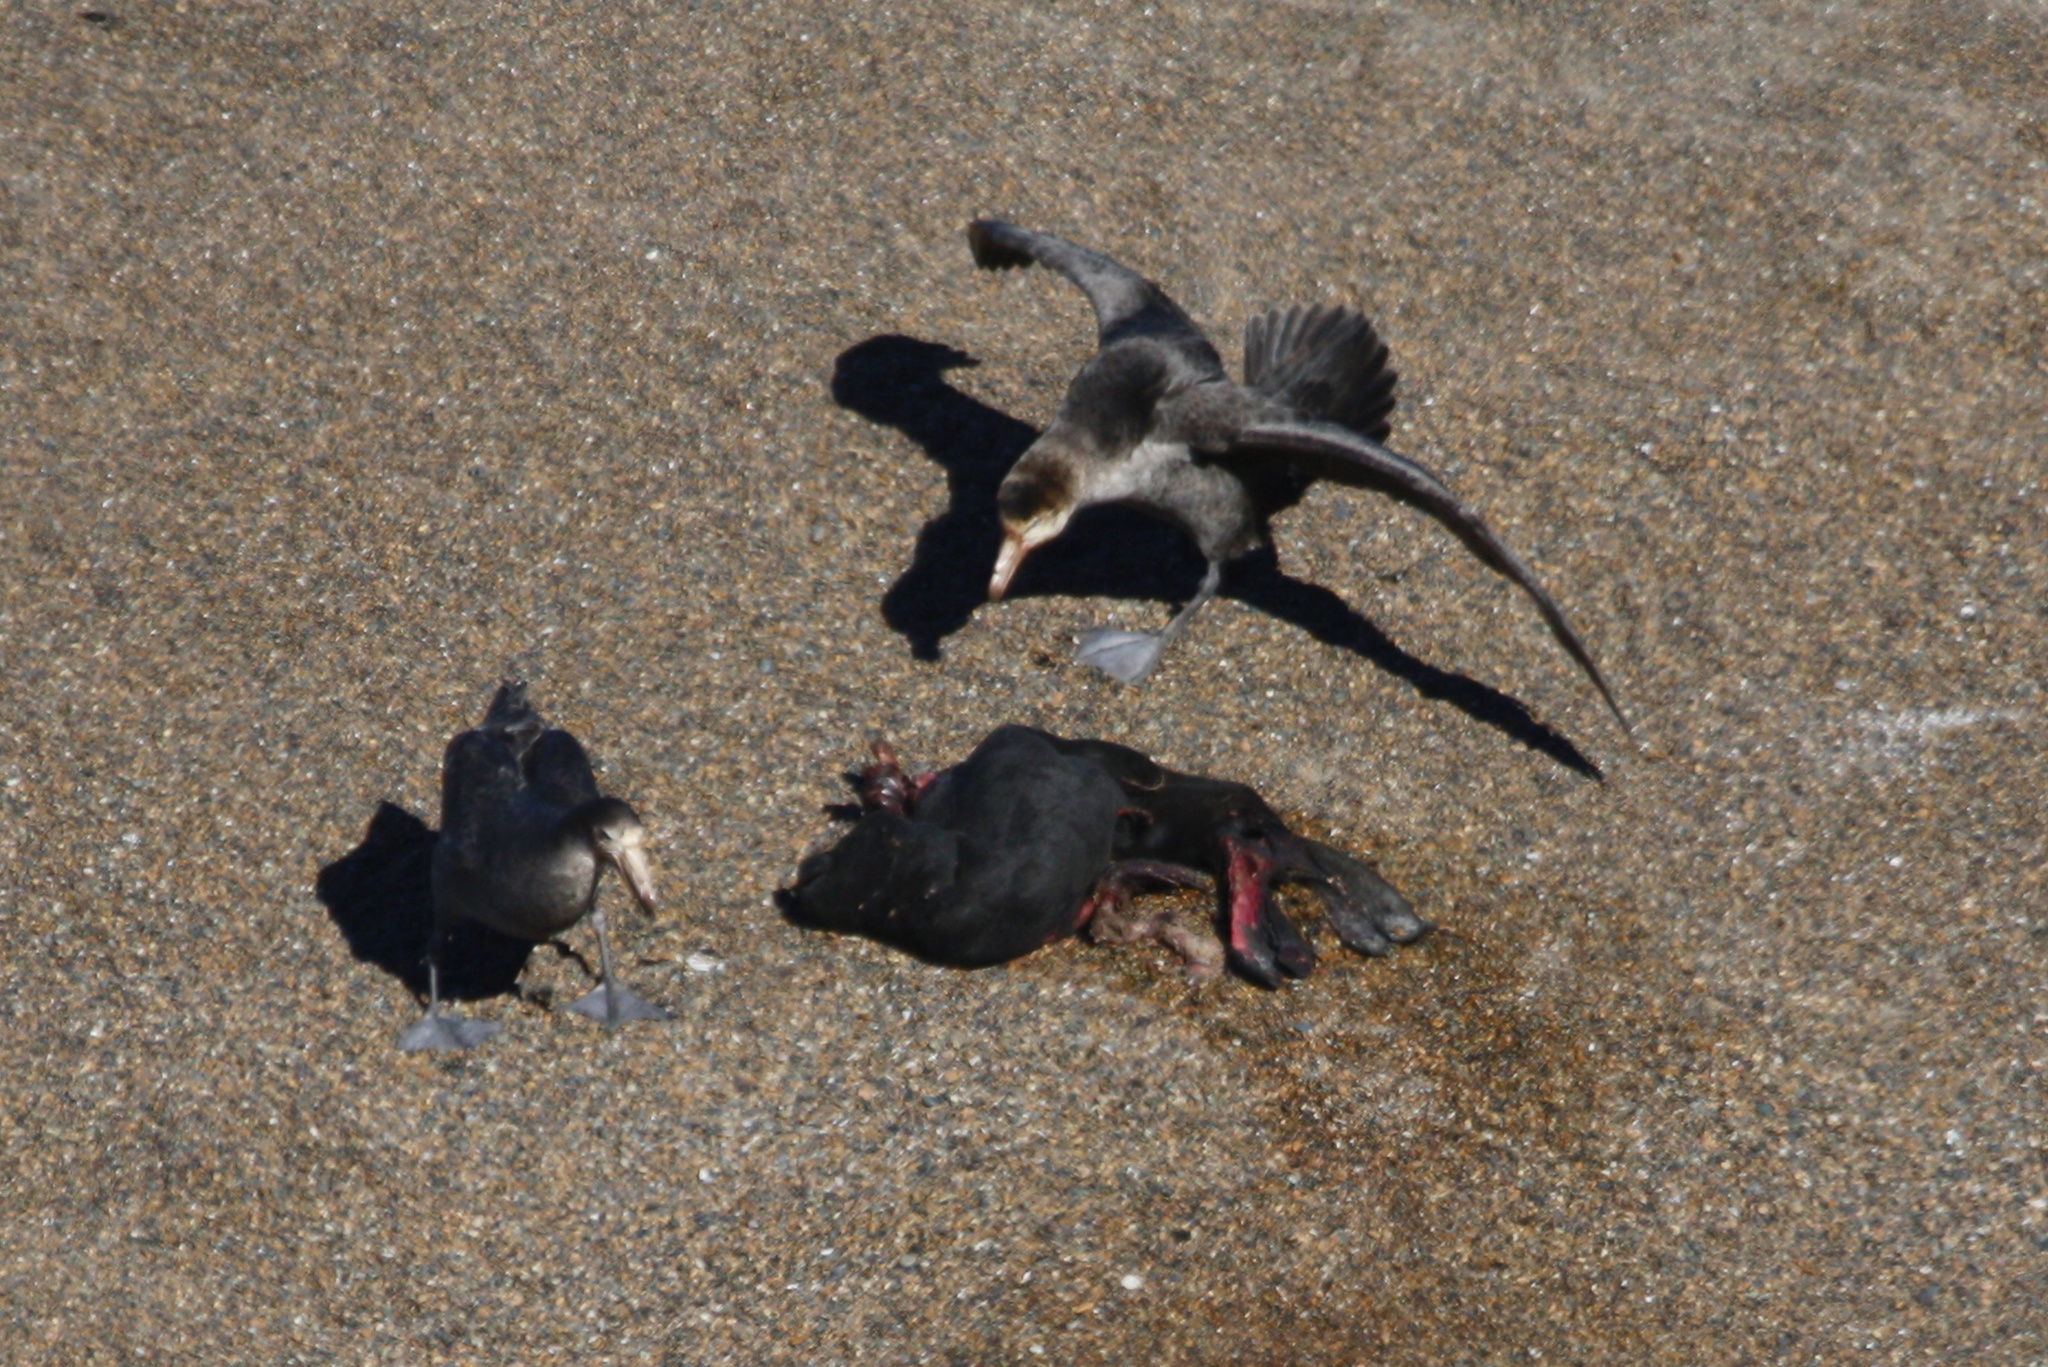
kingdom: Animalia
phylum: Chordata
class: Aves
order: Procellariiformes
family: Procellariidae
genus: Macronectes
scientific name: Macronectes halli
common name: Northern giant petrel
